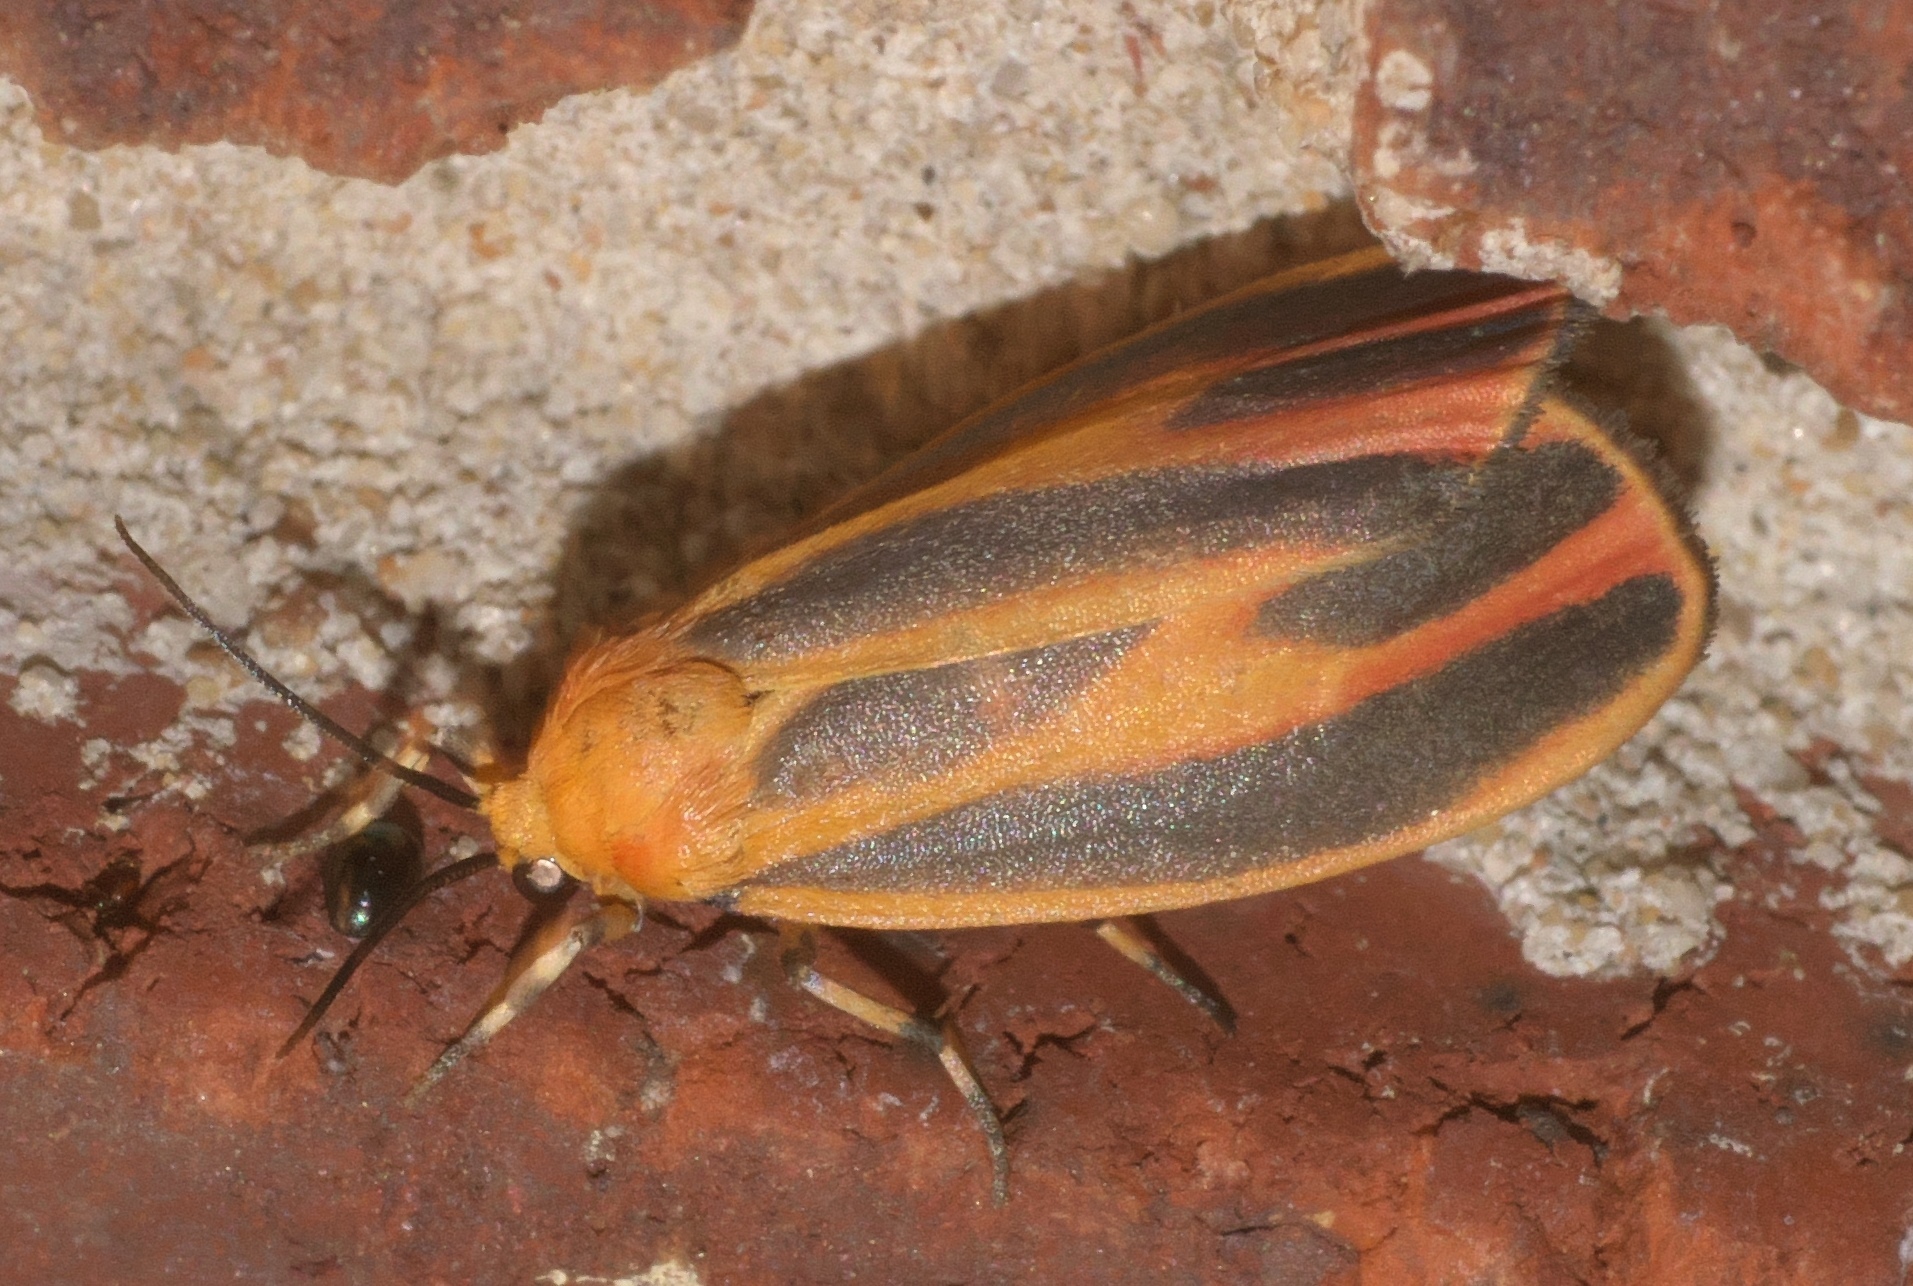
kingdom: Animalia
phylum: Arthropoda
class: Insecta
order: Lepidoptera
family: Erebidae
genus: Hypoprepia
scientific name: Hypoprepia fucosa
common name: Painted lichen moth
